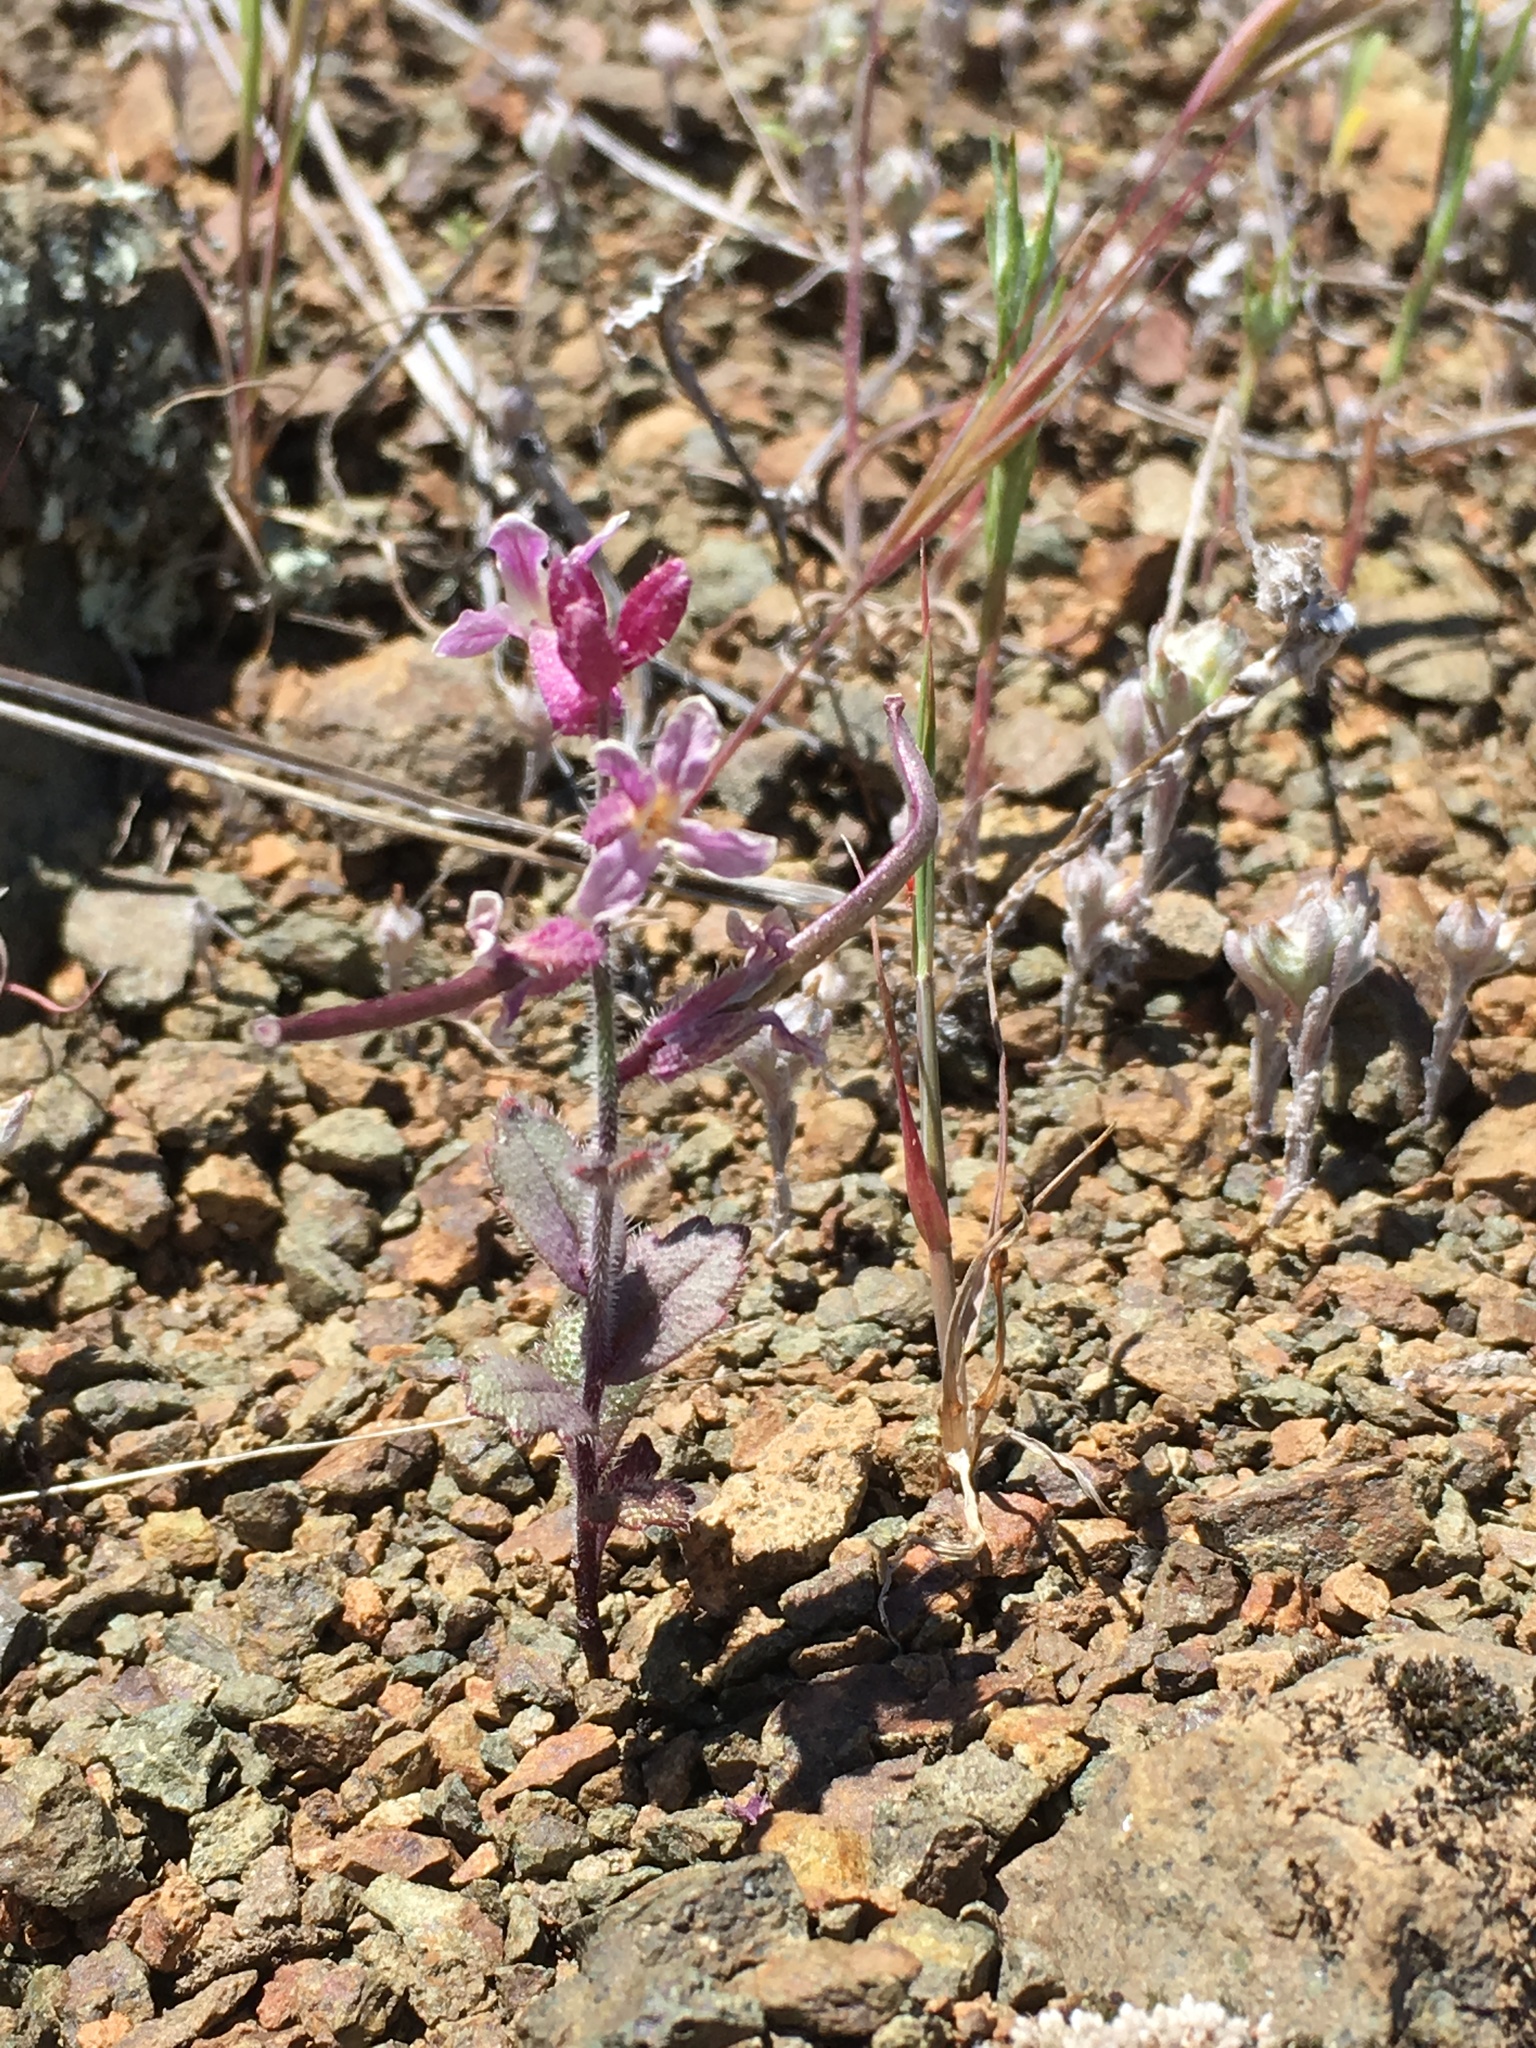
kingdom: Plantae
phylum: Tracheophyta
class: Magnoliopsida
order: Brassicales
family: Brassicaceae
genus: Streptanthus
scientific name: Streptanthus hispidus
